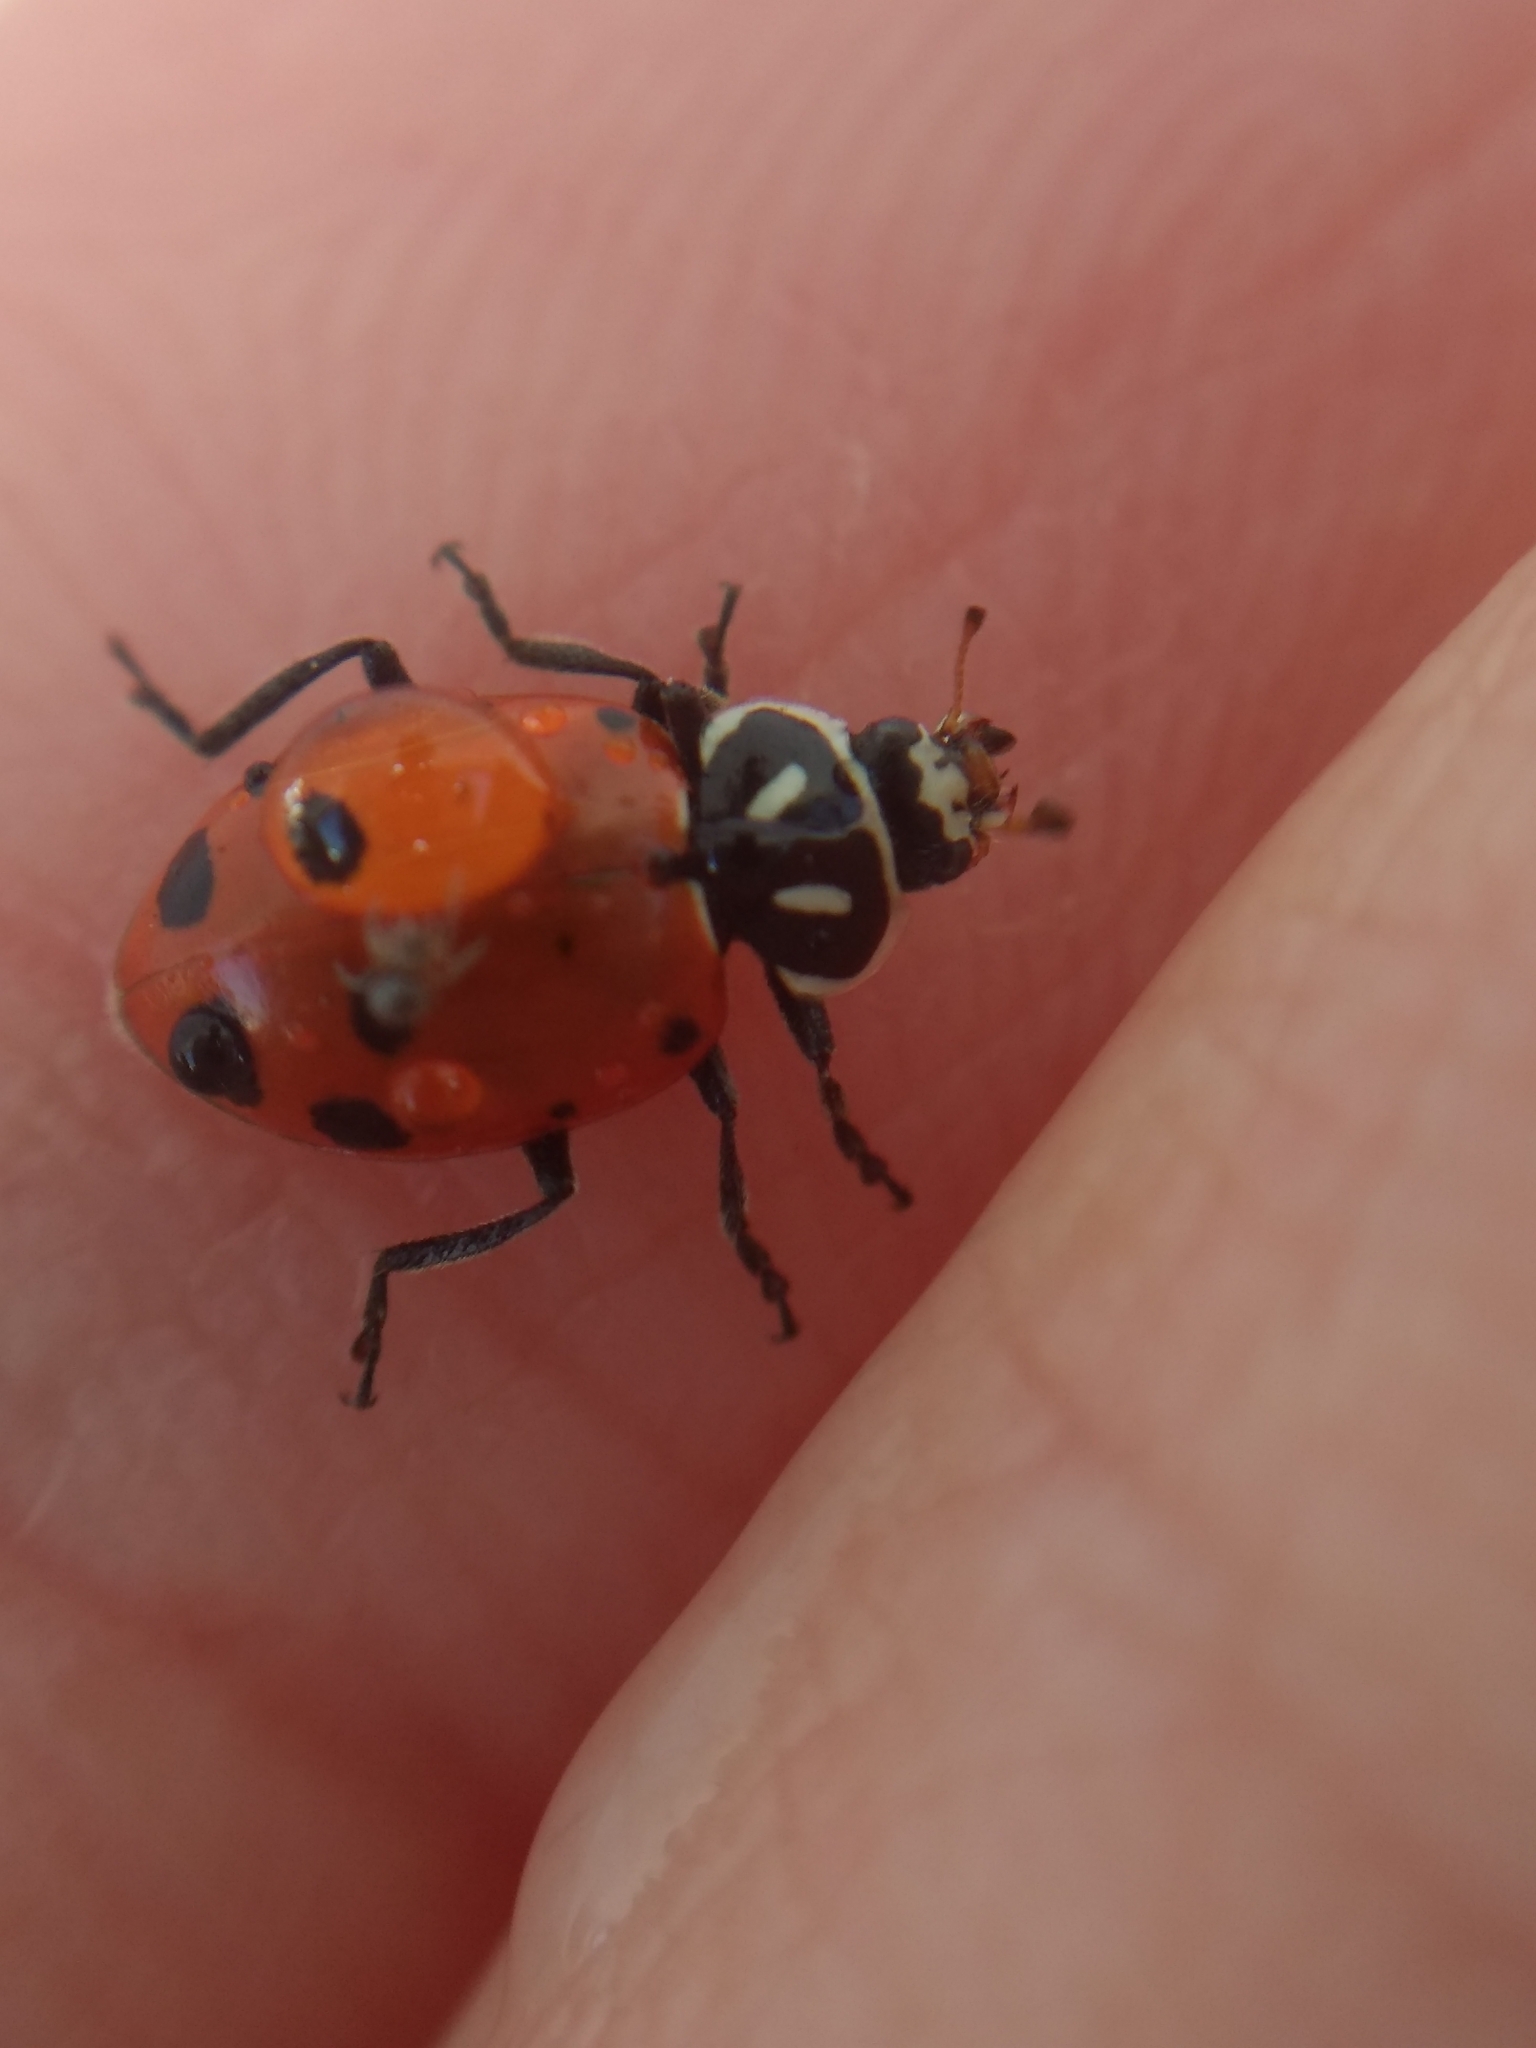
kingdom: Animalia
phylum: Arthropoda
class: Insecta
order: Coleoptera
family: Coccinellidae
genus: Hippodamia
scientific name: Hippodamia convergens
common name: Convergent lady beetle
